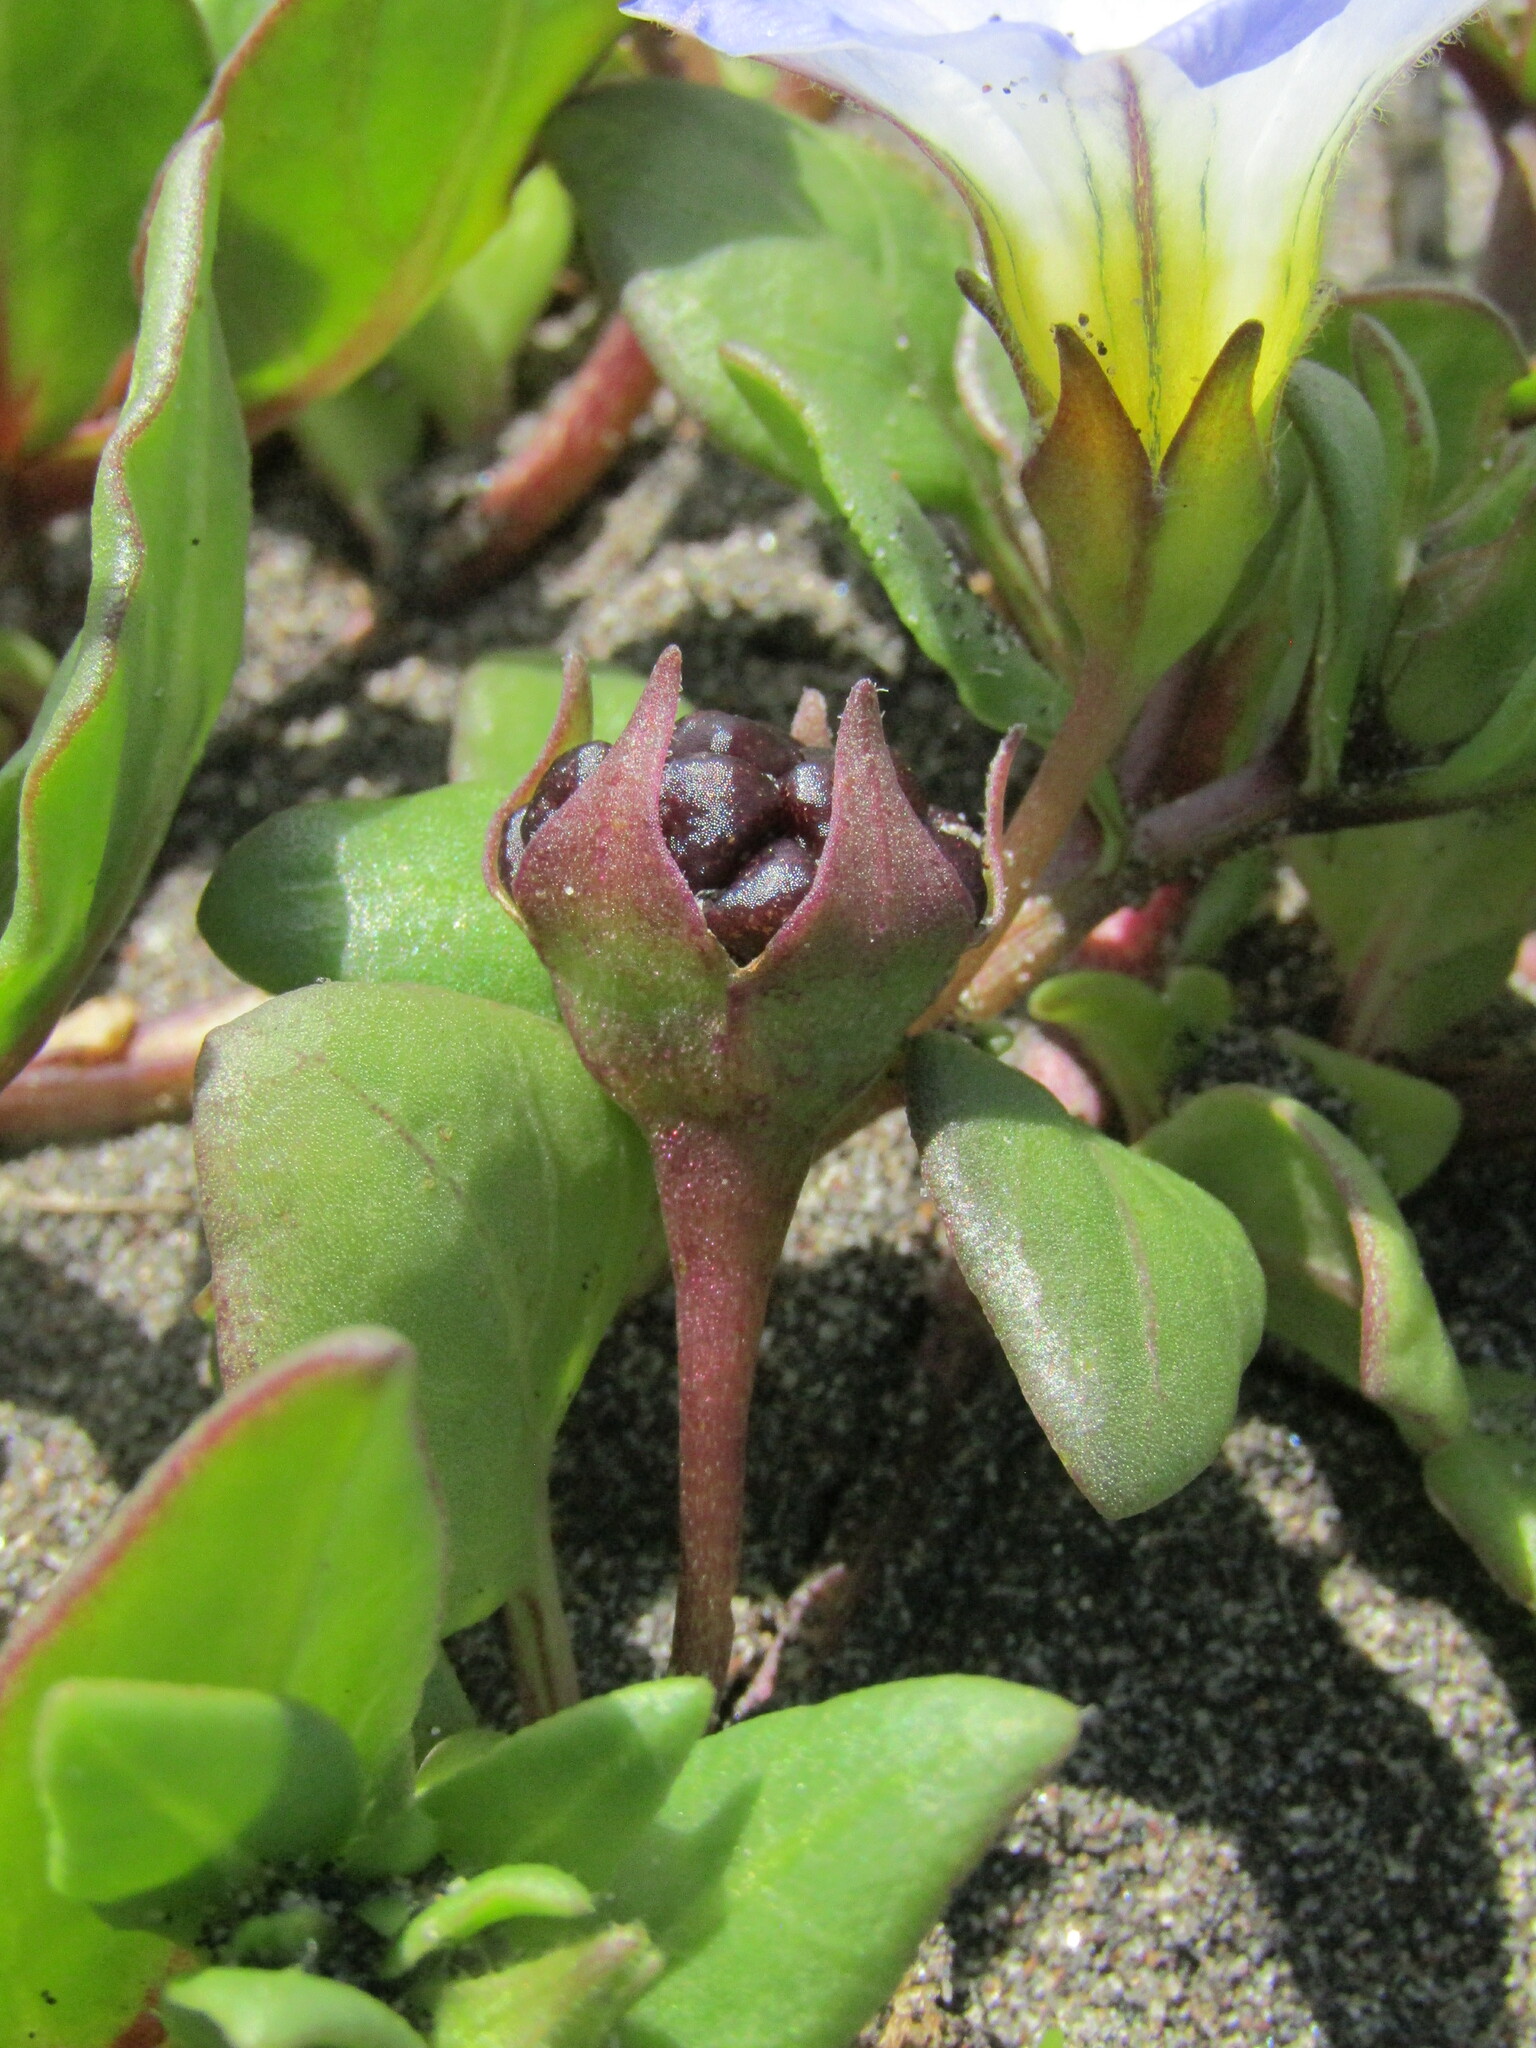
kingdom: Plantae
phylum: Tracheophyta
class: Magnoliopsida
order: Solanales
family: Solanaceae
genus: Nolana
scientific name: Nolana paradoxa
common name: Chilean-bellflower
